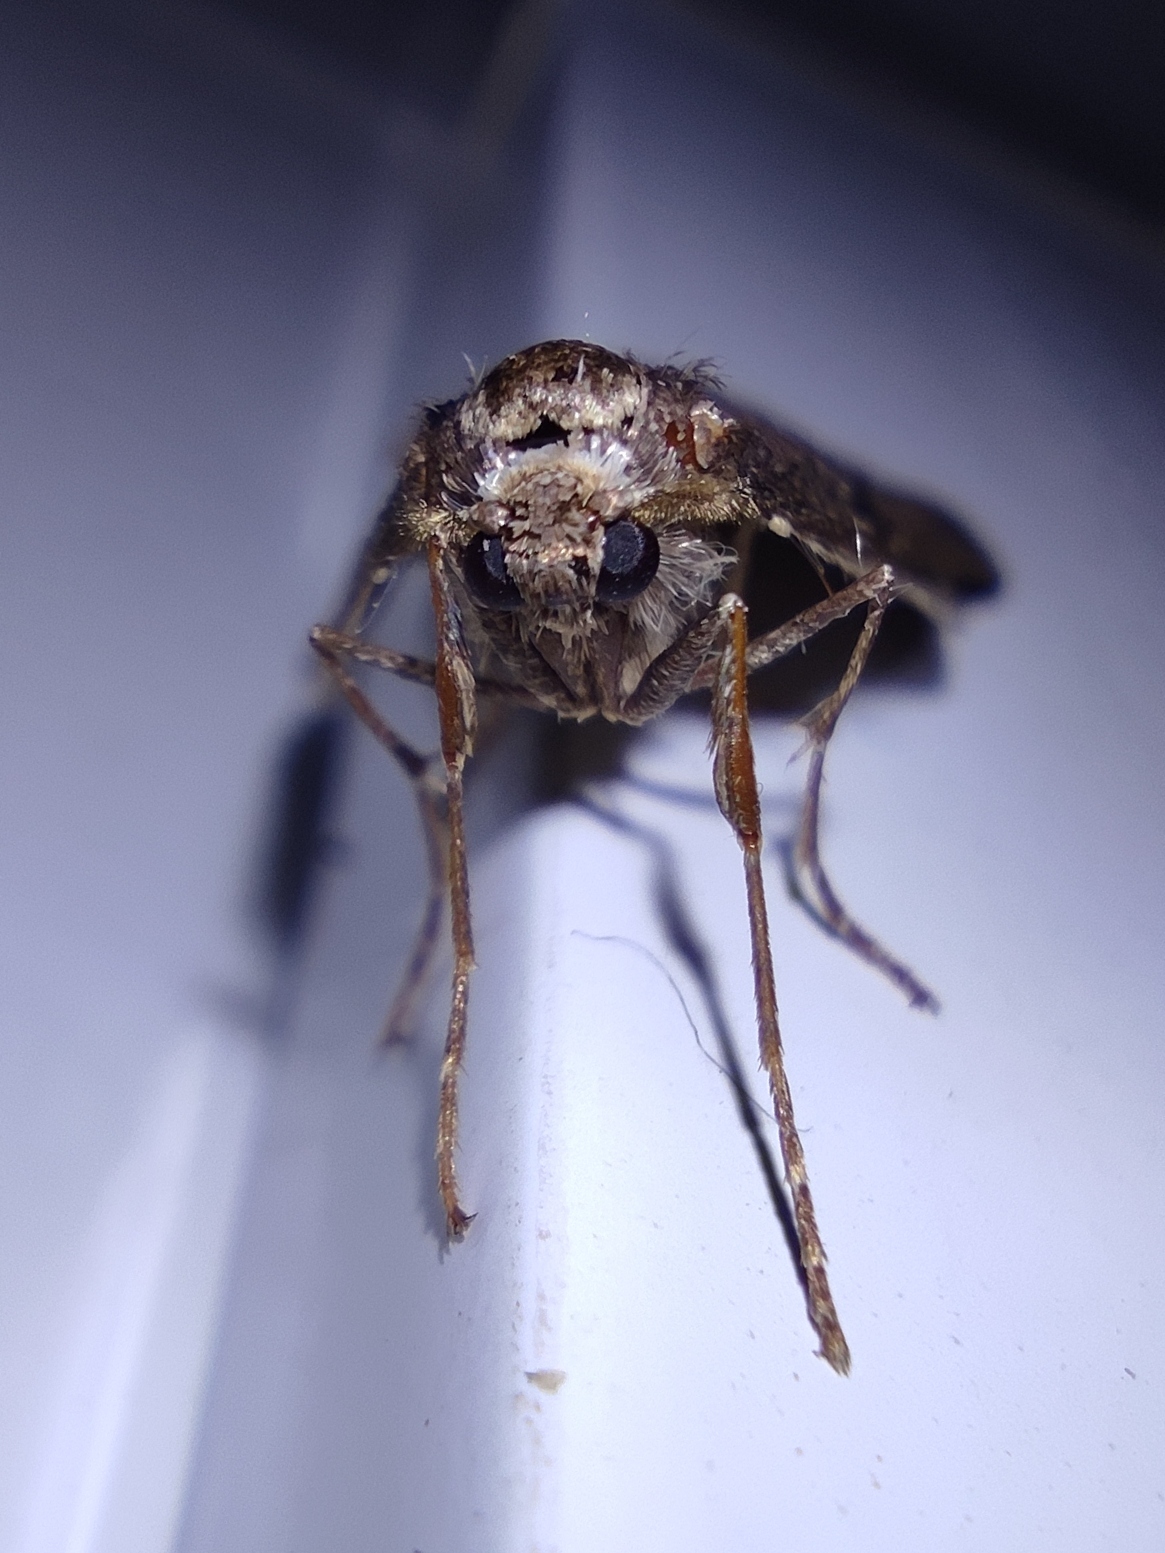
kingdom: Animalia
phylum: Arthropoda
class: Insecta
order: Lepidoptera
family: Geometridae
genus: Alsophila
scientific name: Alsophila aescularia
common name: March moth
